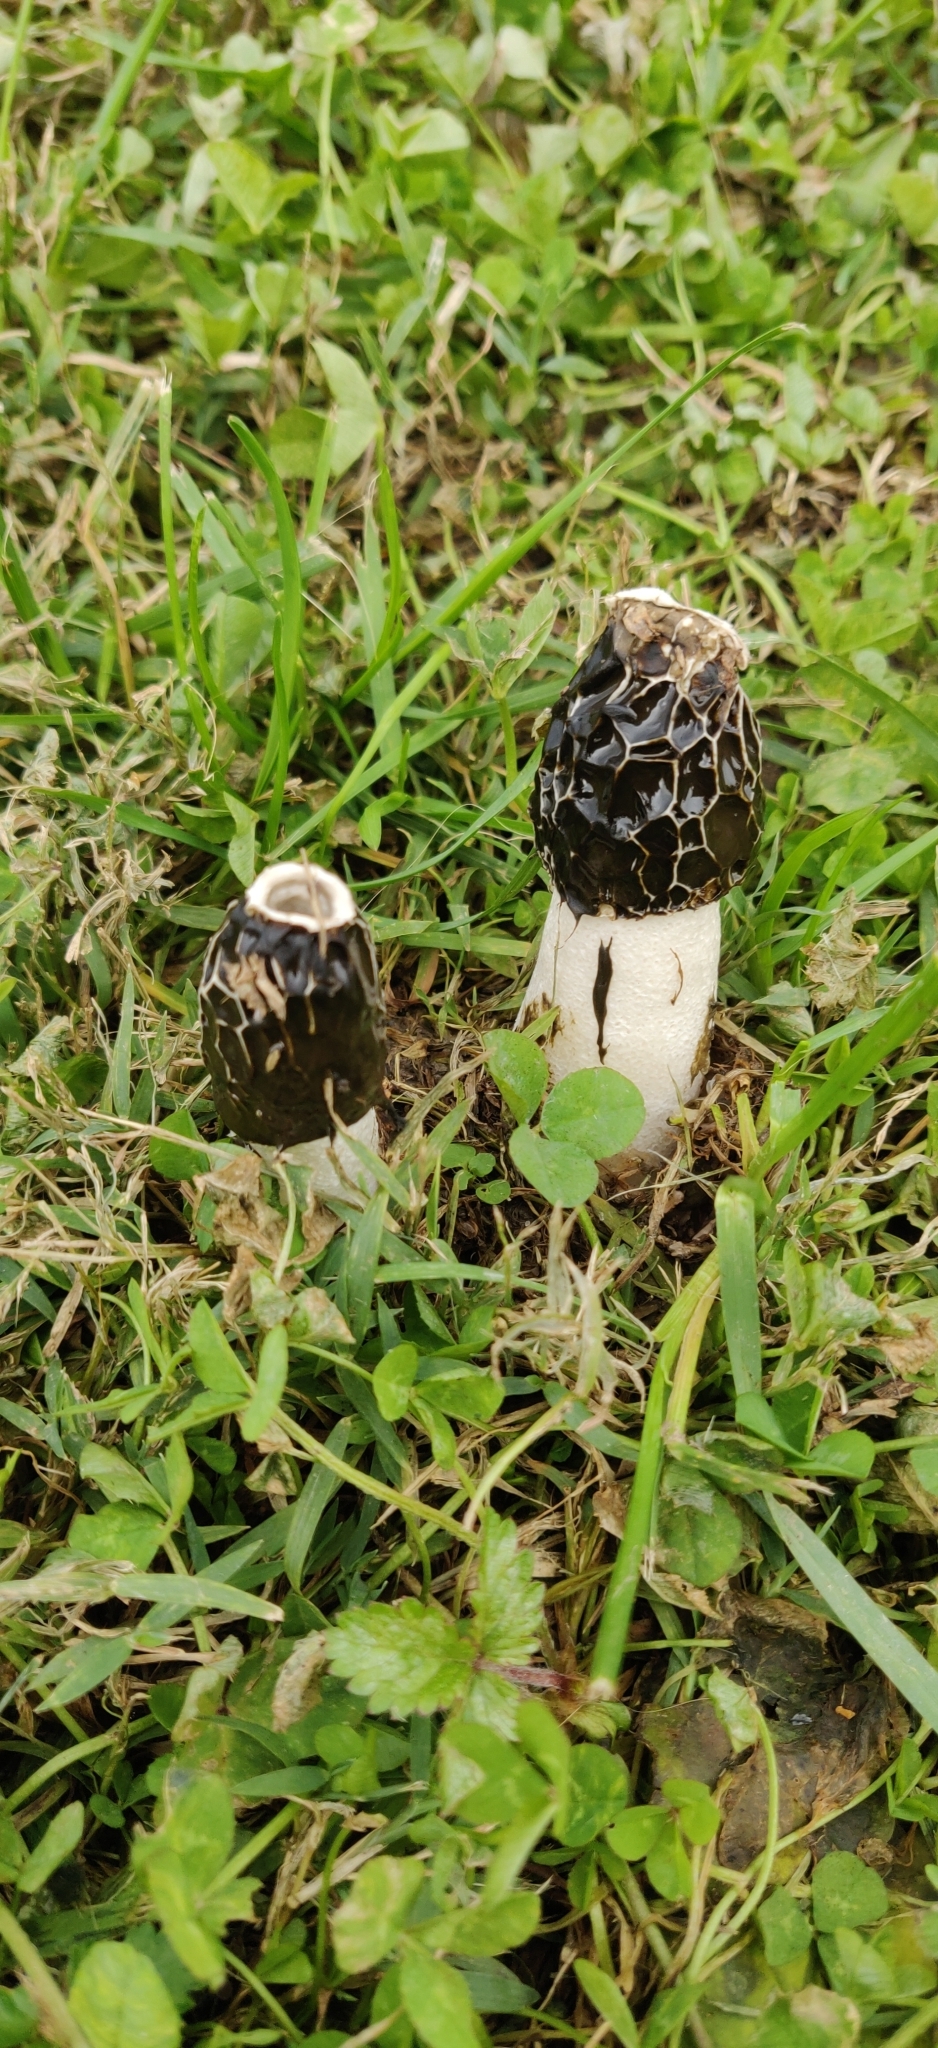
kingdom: Fungi
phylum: Basidiomycota
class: Agaricomycetes
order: Phallales
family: Phallaceae
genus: Phallus
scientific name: Phallus impudicus
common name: Common stinkhorn
